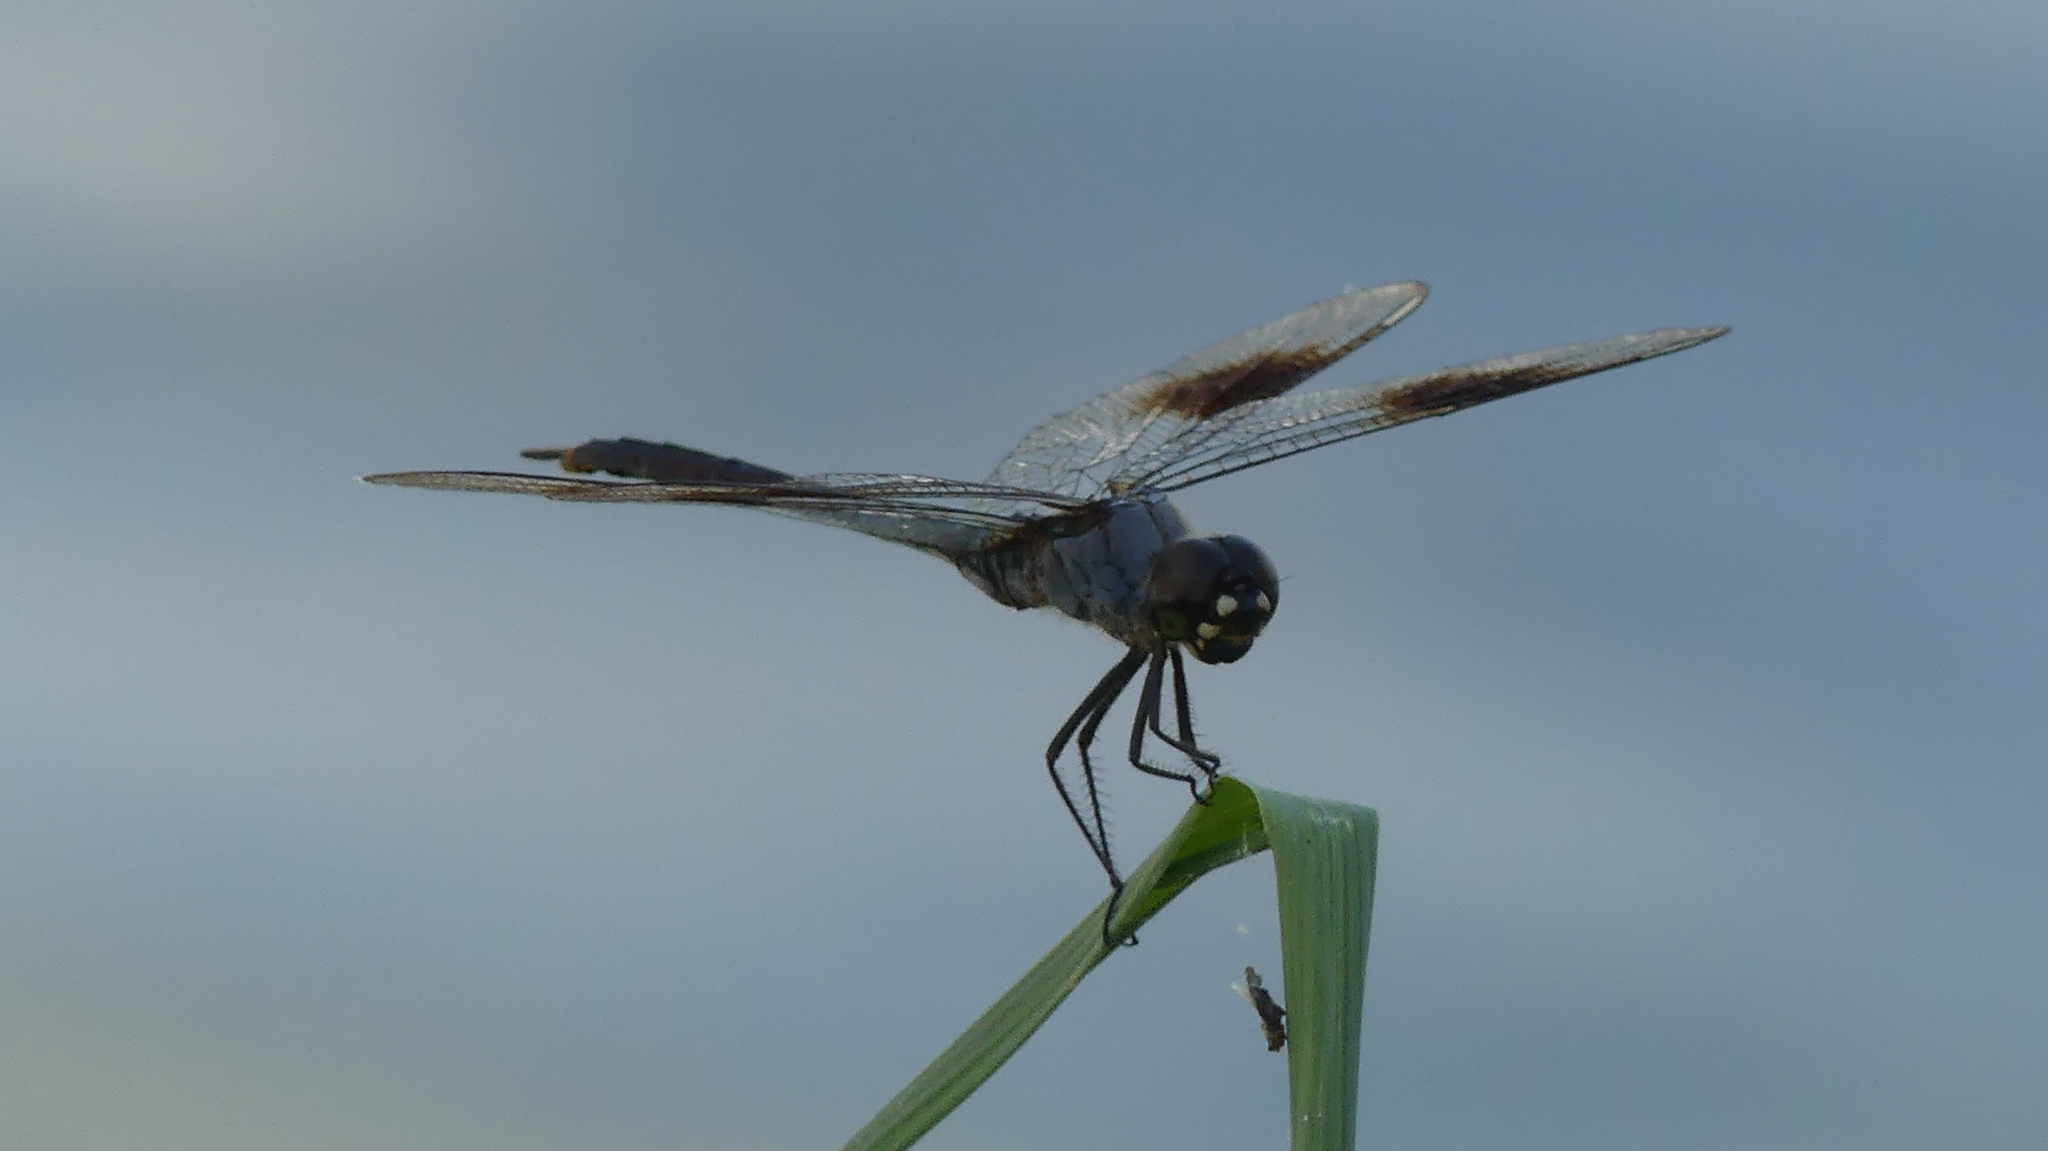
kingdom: Animalia
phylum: Arthropoda
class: Insecta
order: Odonata
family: Libellulidae
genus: Brachymesia
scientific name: Brachymesia gravida
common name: Four-spotted pennant
